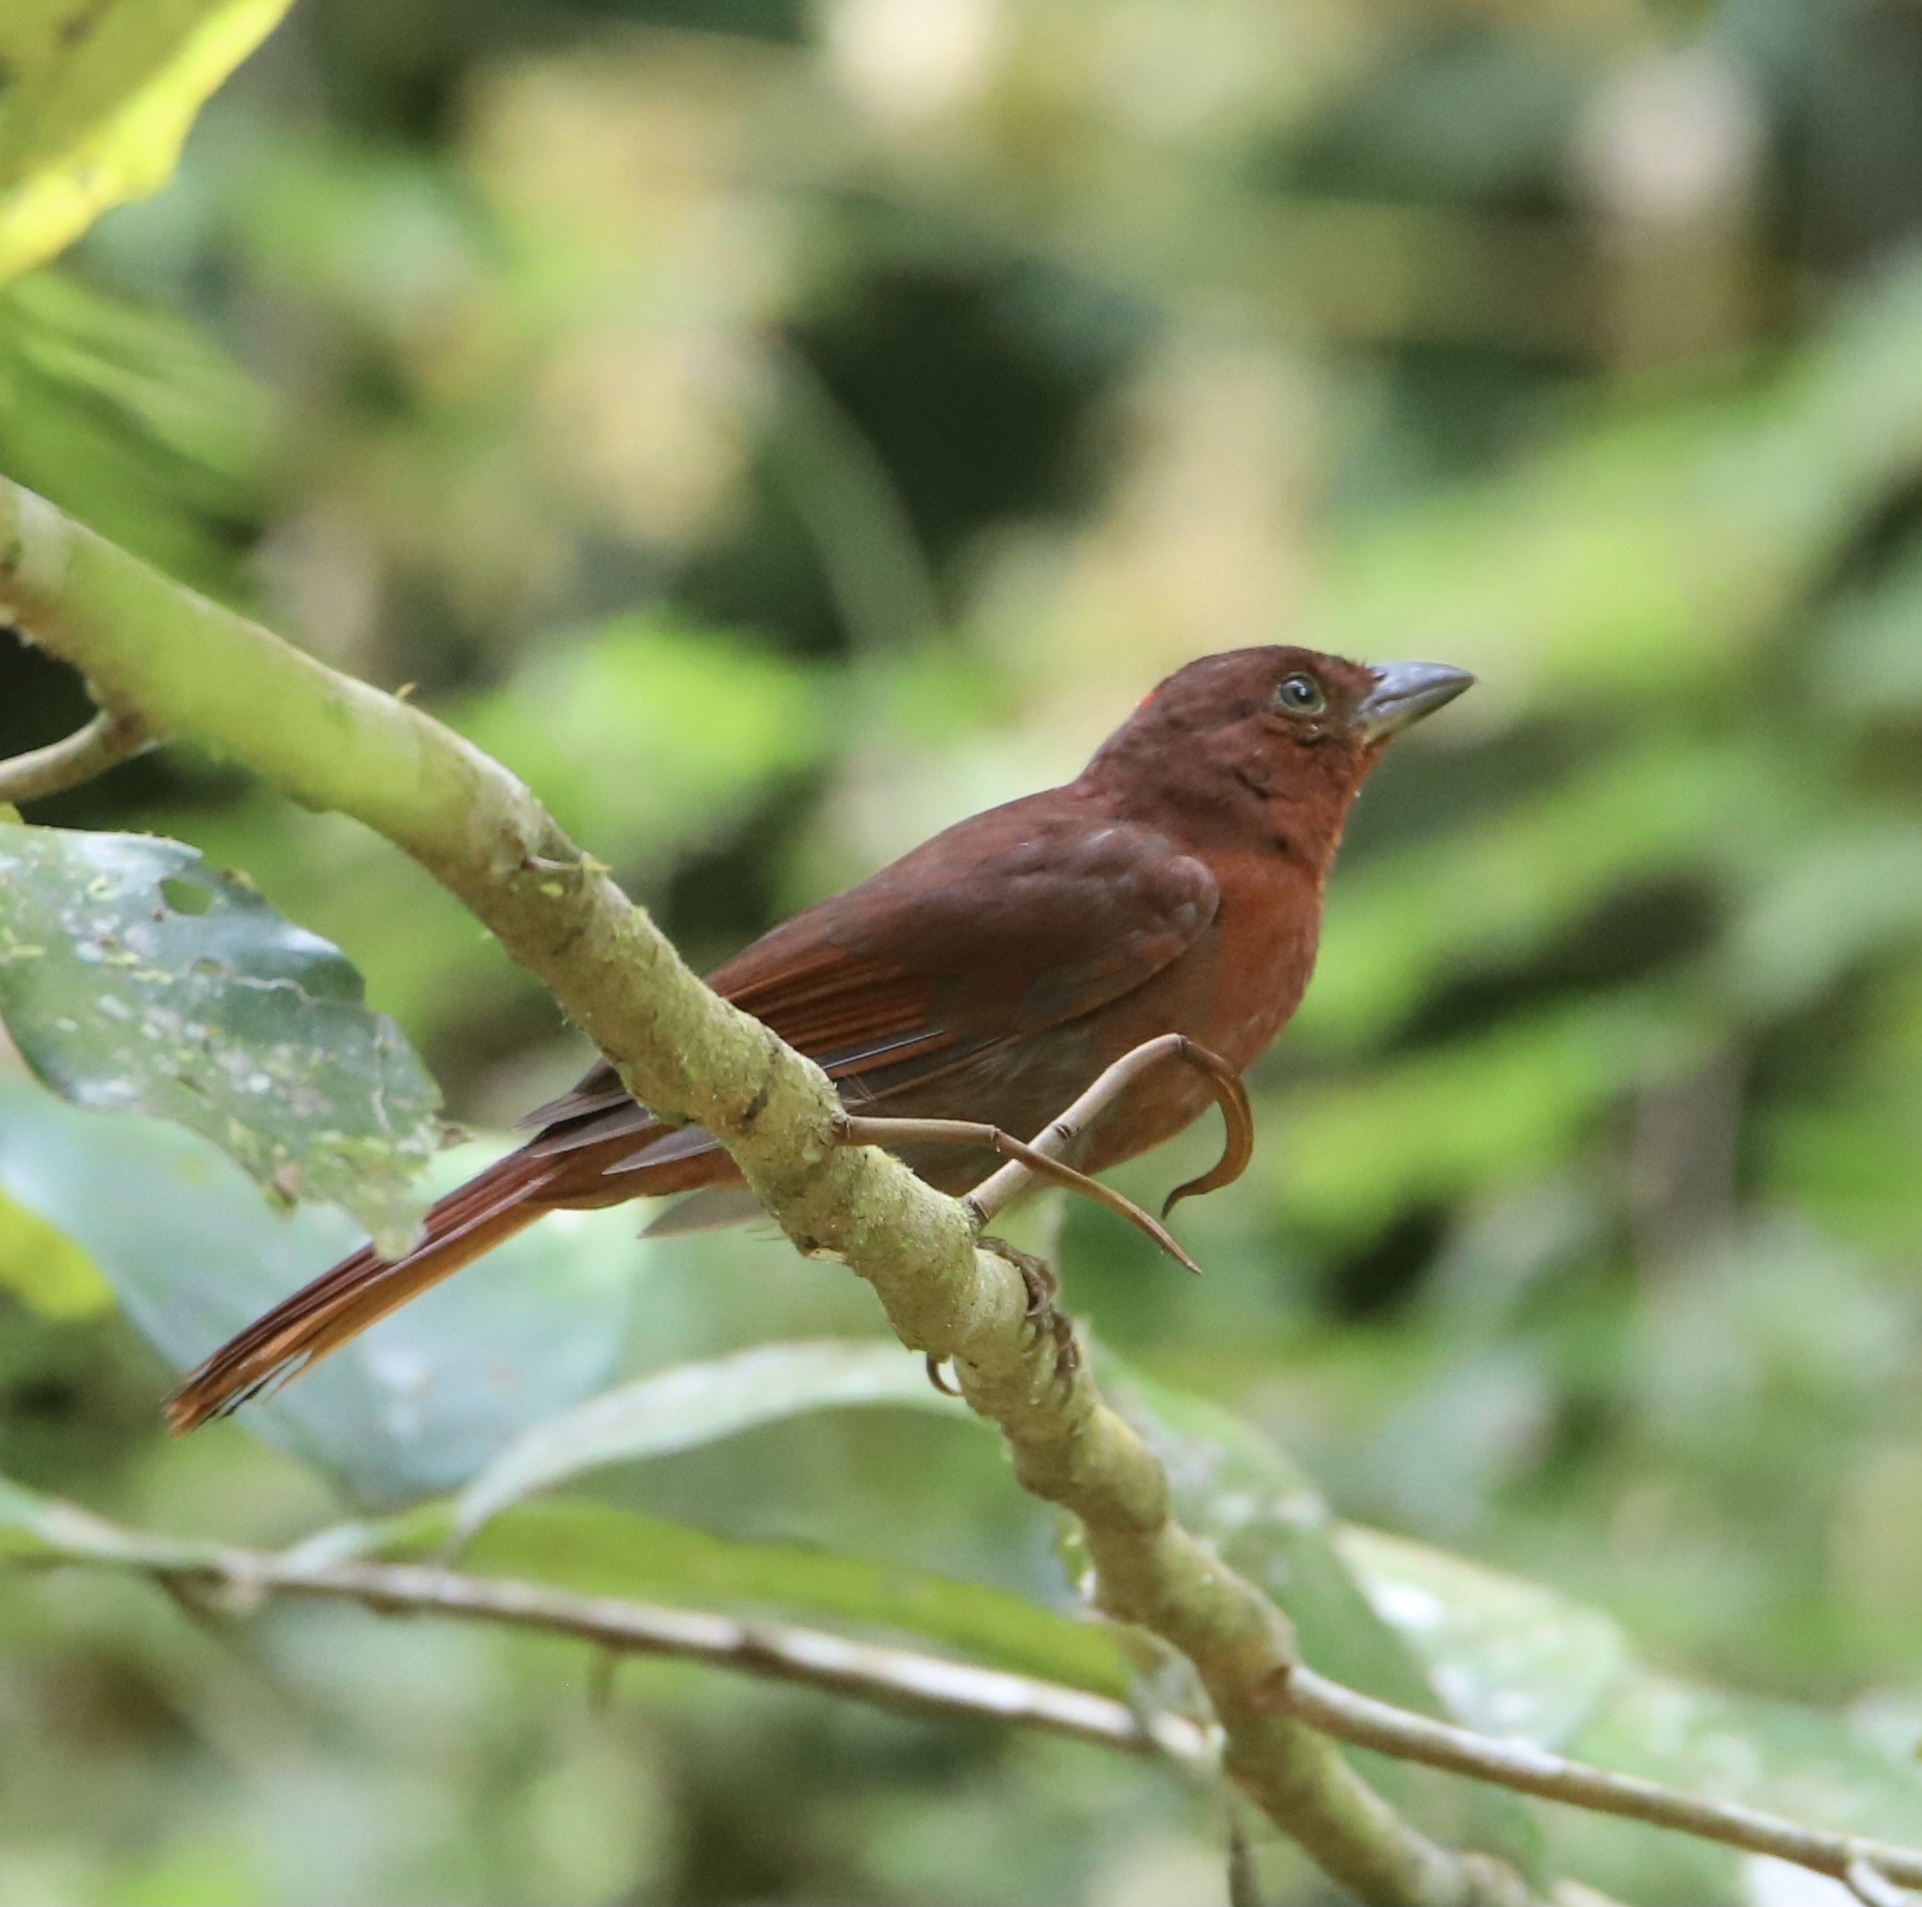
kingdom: Animalia
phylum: Chordata
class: Aves
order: Passeriformes
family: Cardinalidae
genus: Habia
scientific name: Habia rubica
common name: Red-crowned ant-tanager
